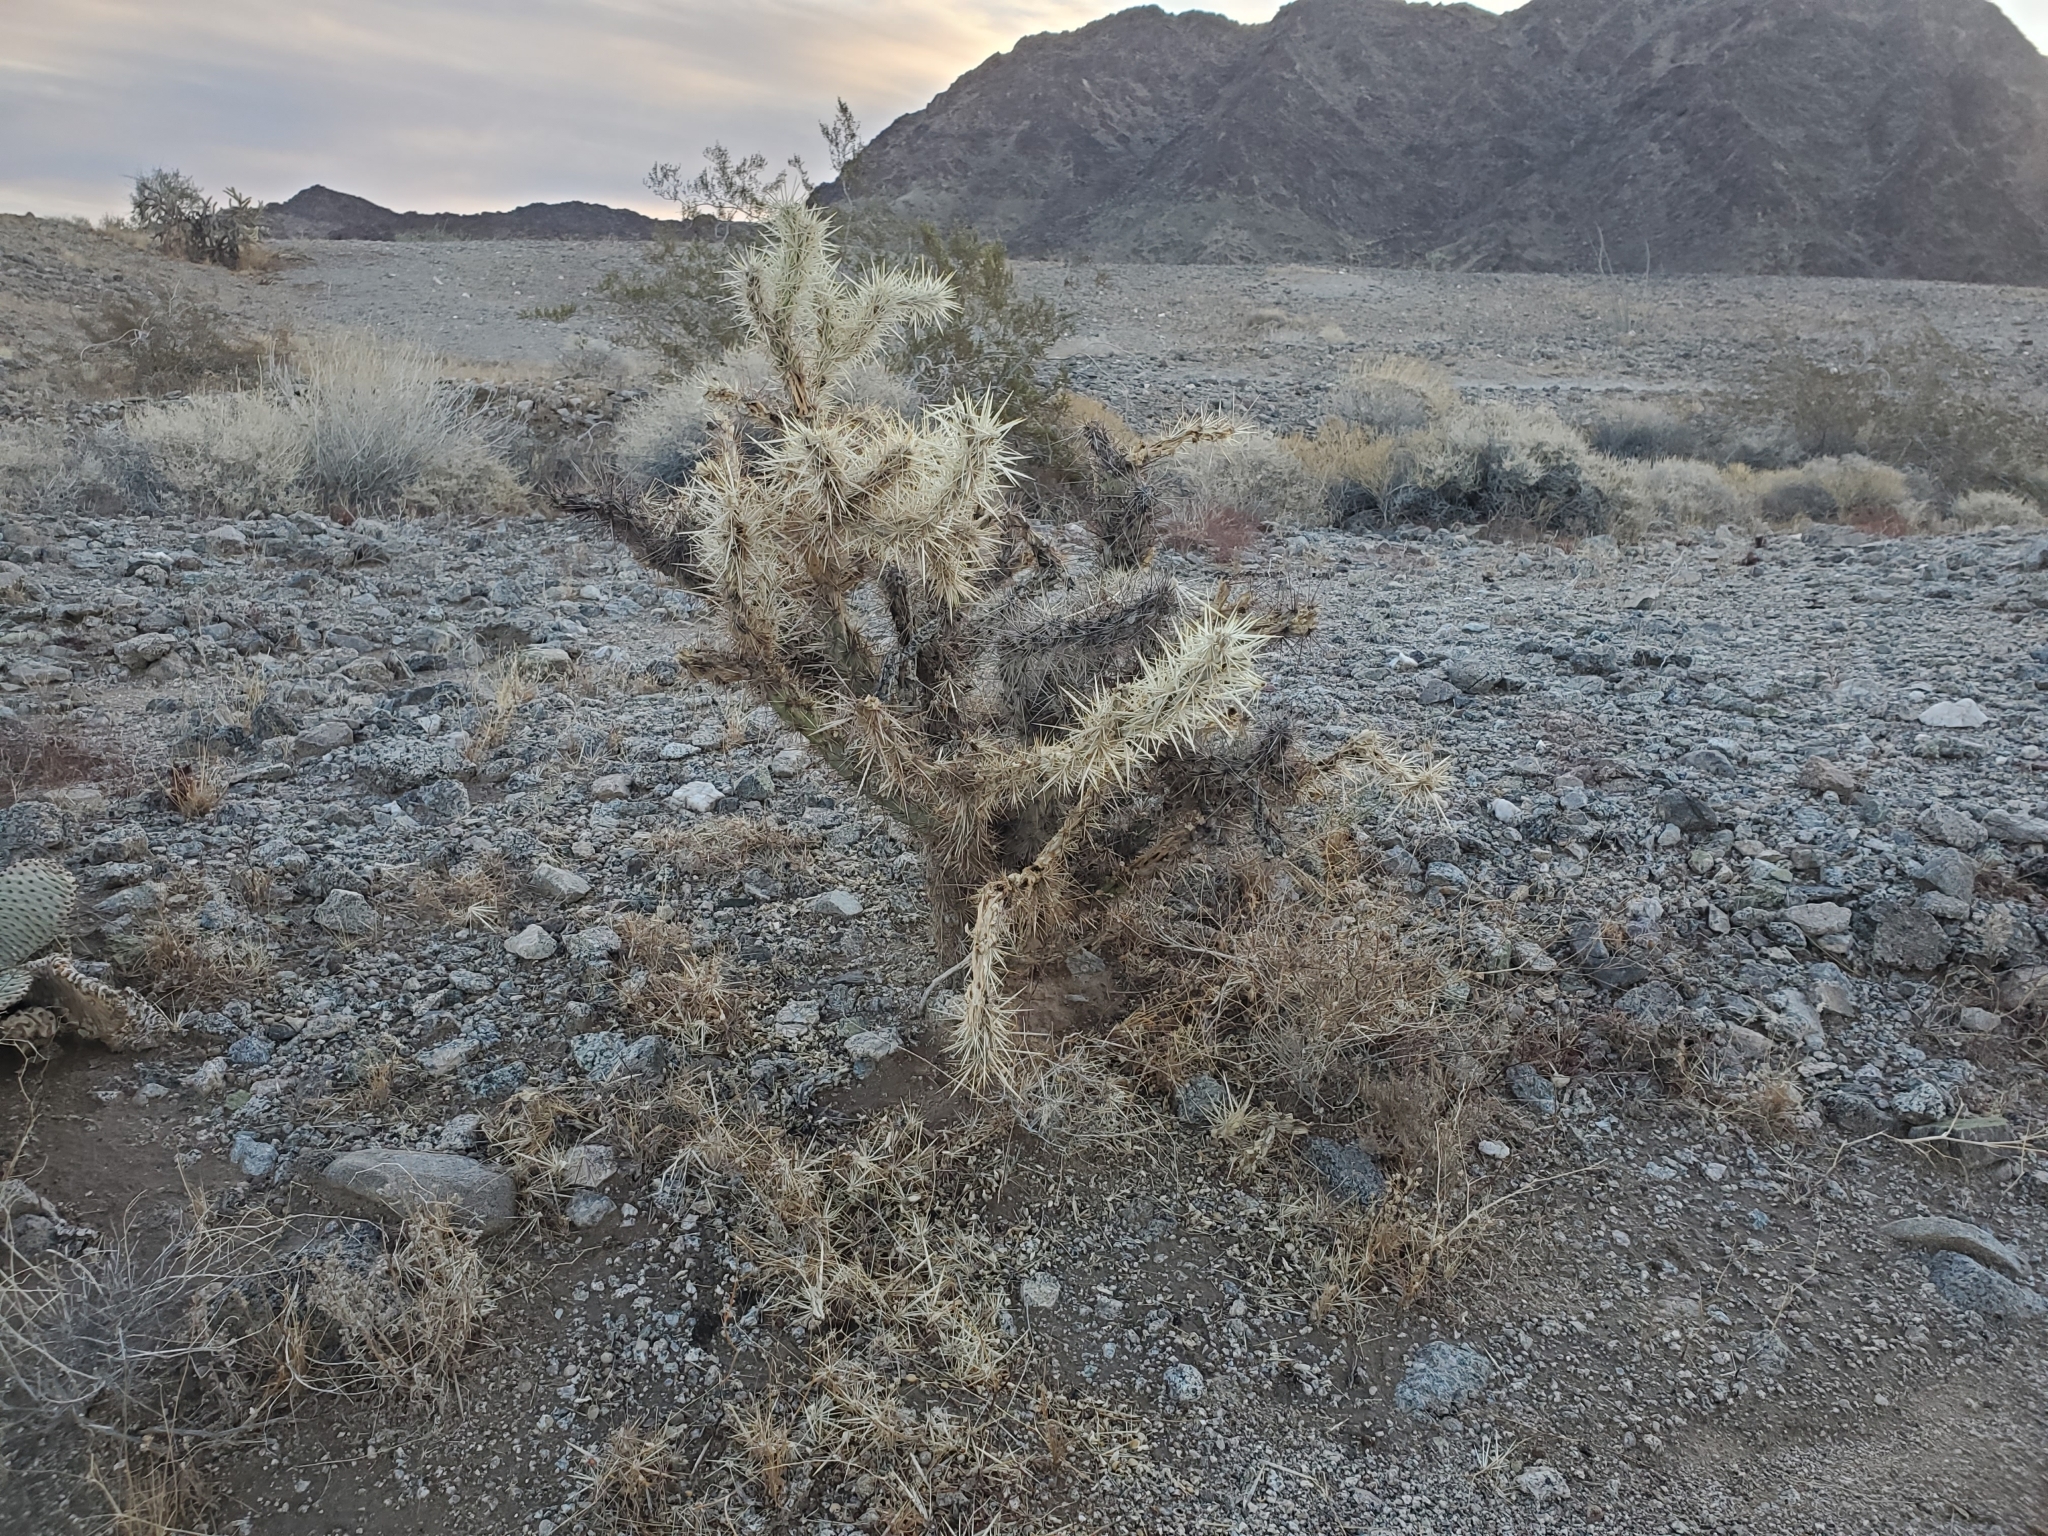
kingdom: Plantae
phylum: Tracheophyta
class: Magnoliopsida
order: Caryophyllales
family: Cactaceae
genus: Cylindropuntia
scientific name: Cylindropuntia acanthocarpa
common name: Buckhorn cholla
